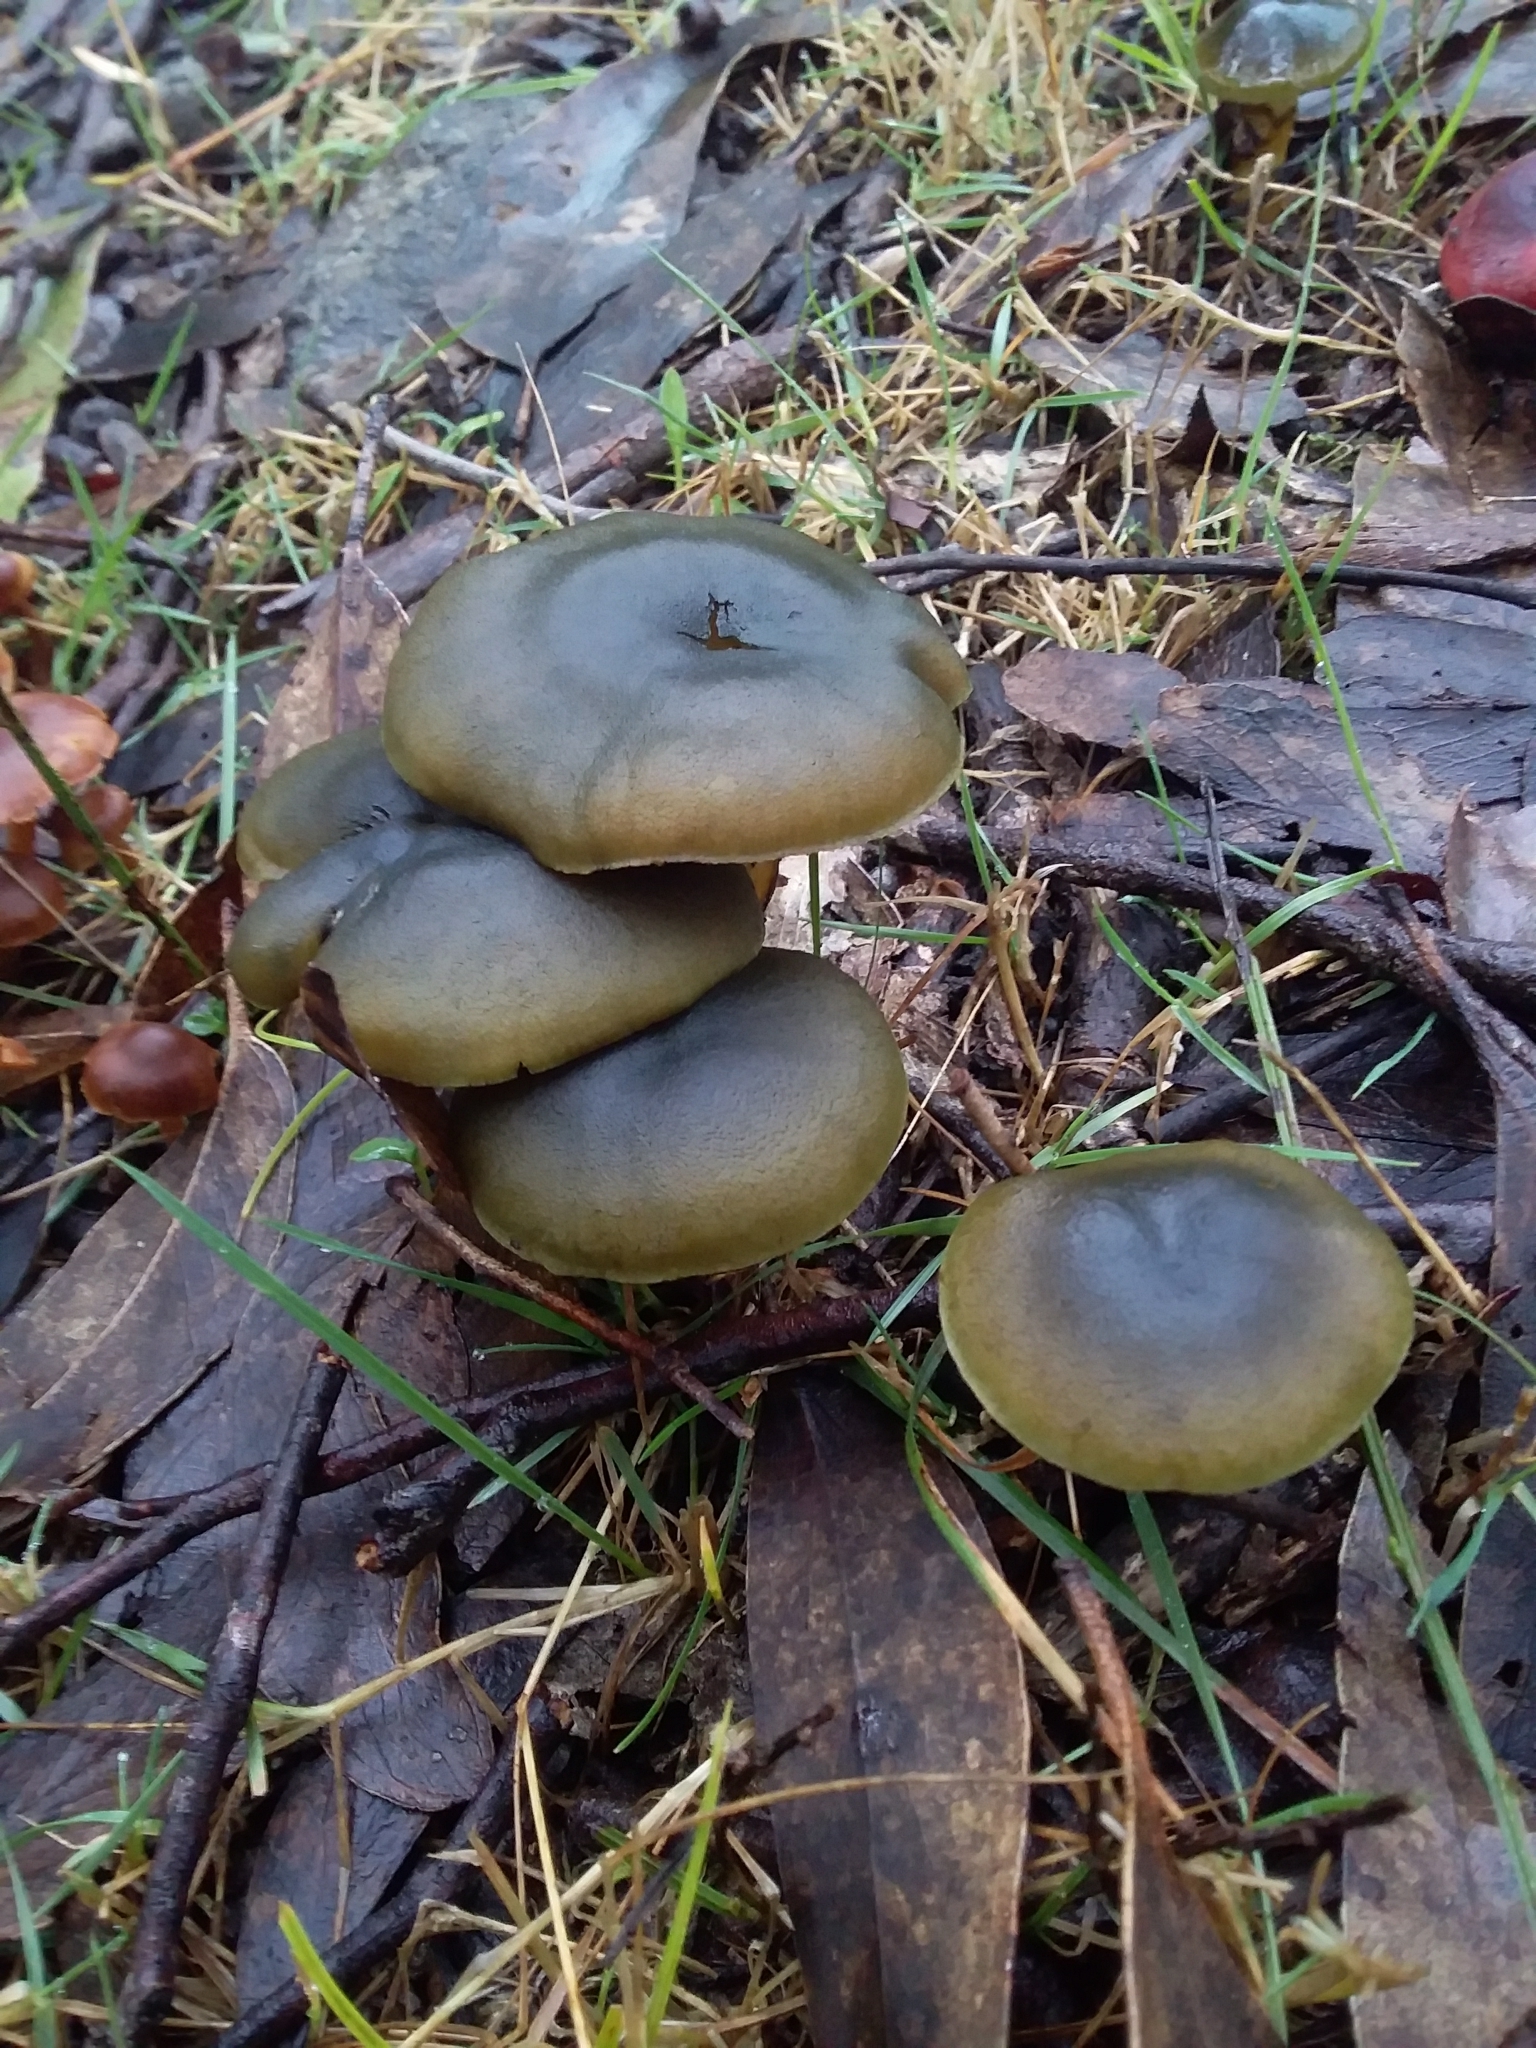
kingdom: Fungi
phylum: Basidiomycota
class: Agaricomycetes
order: Agaricales
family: Cortinariaceae
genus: Cortinarius
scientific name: Cortinarius austrovenetus
